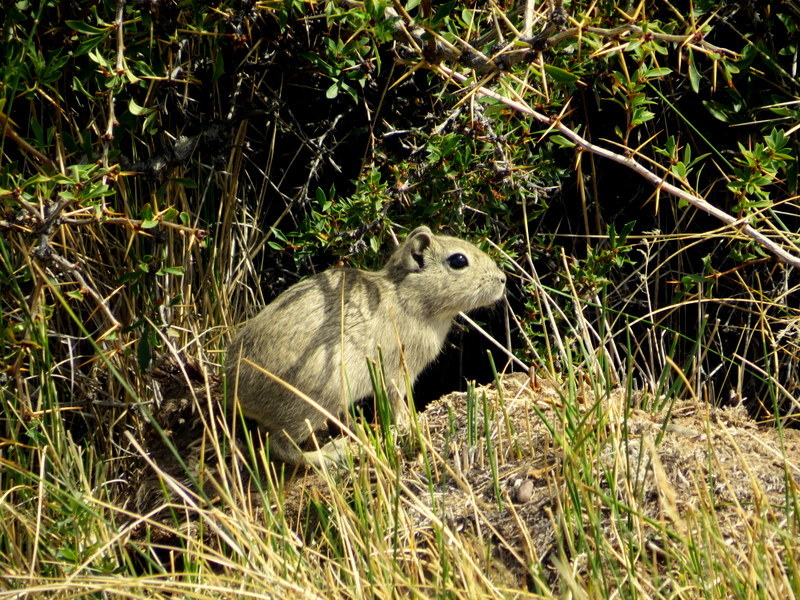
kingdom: Animalia
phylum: Chordata
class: Mammalia
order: Rodentia
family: Caviidae
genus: Microcavia
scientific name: Microcavia australis
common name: Southern mountain cavy
